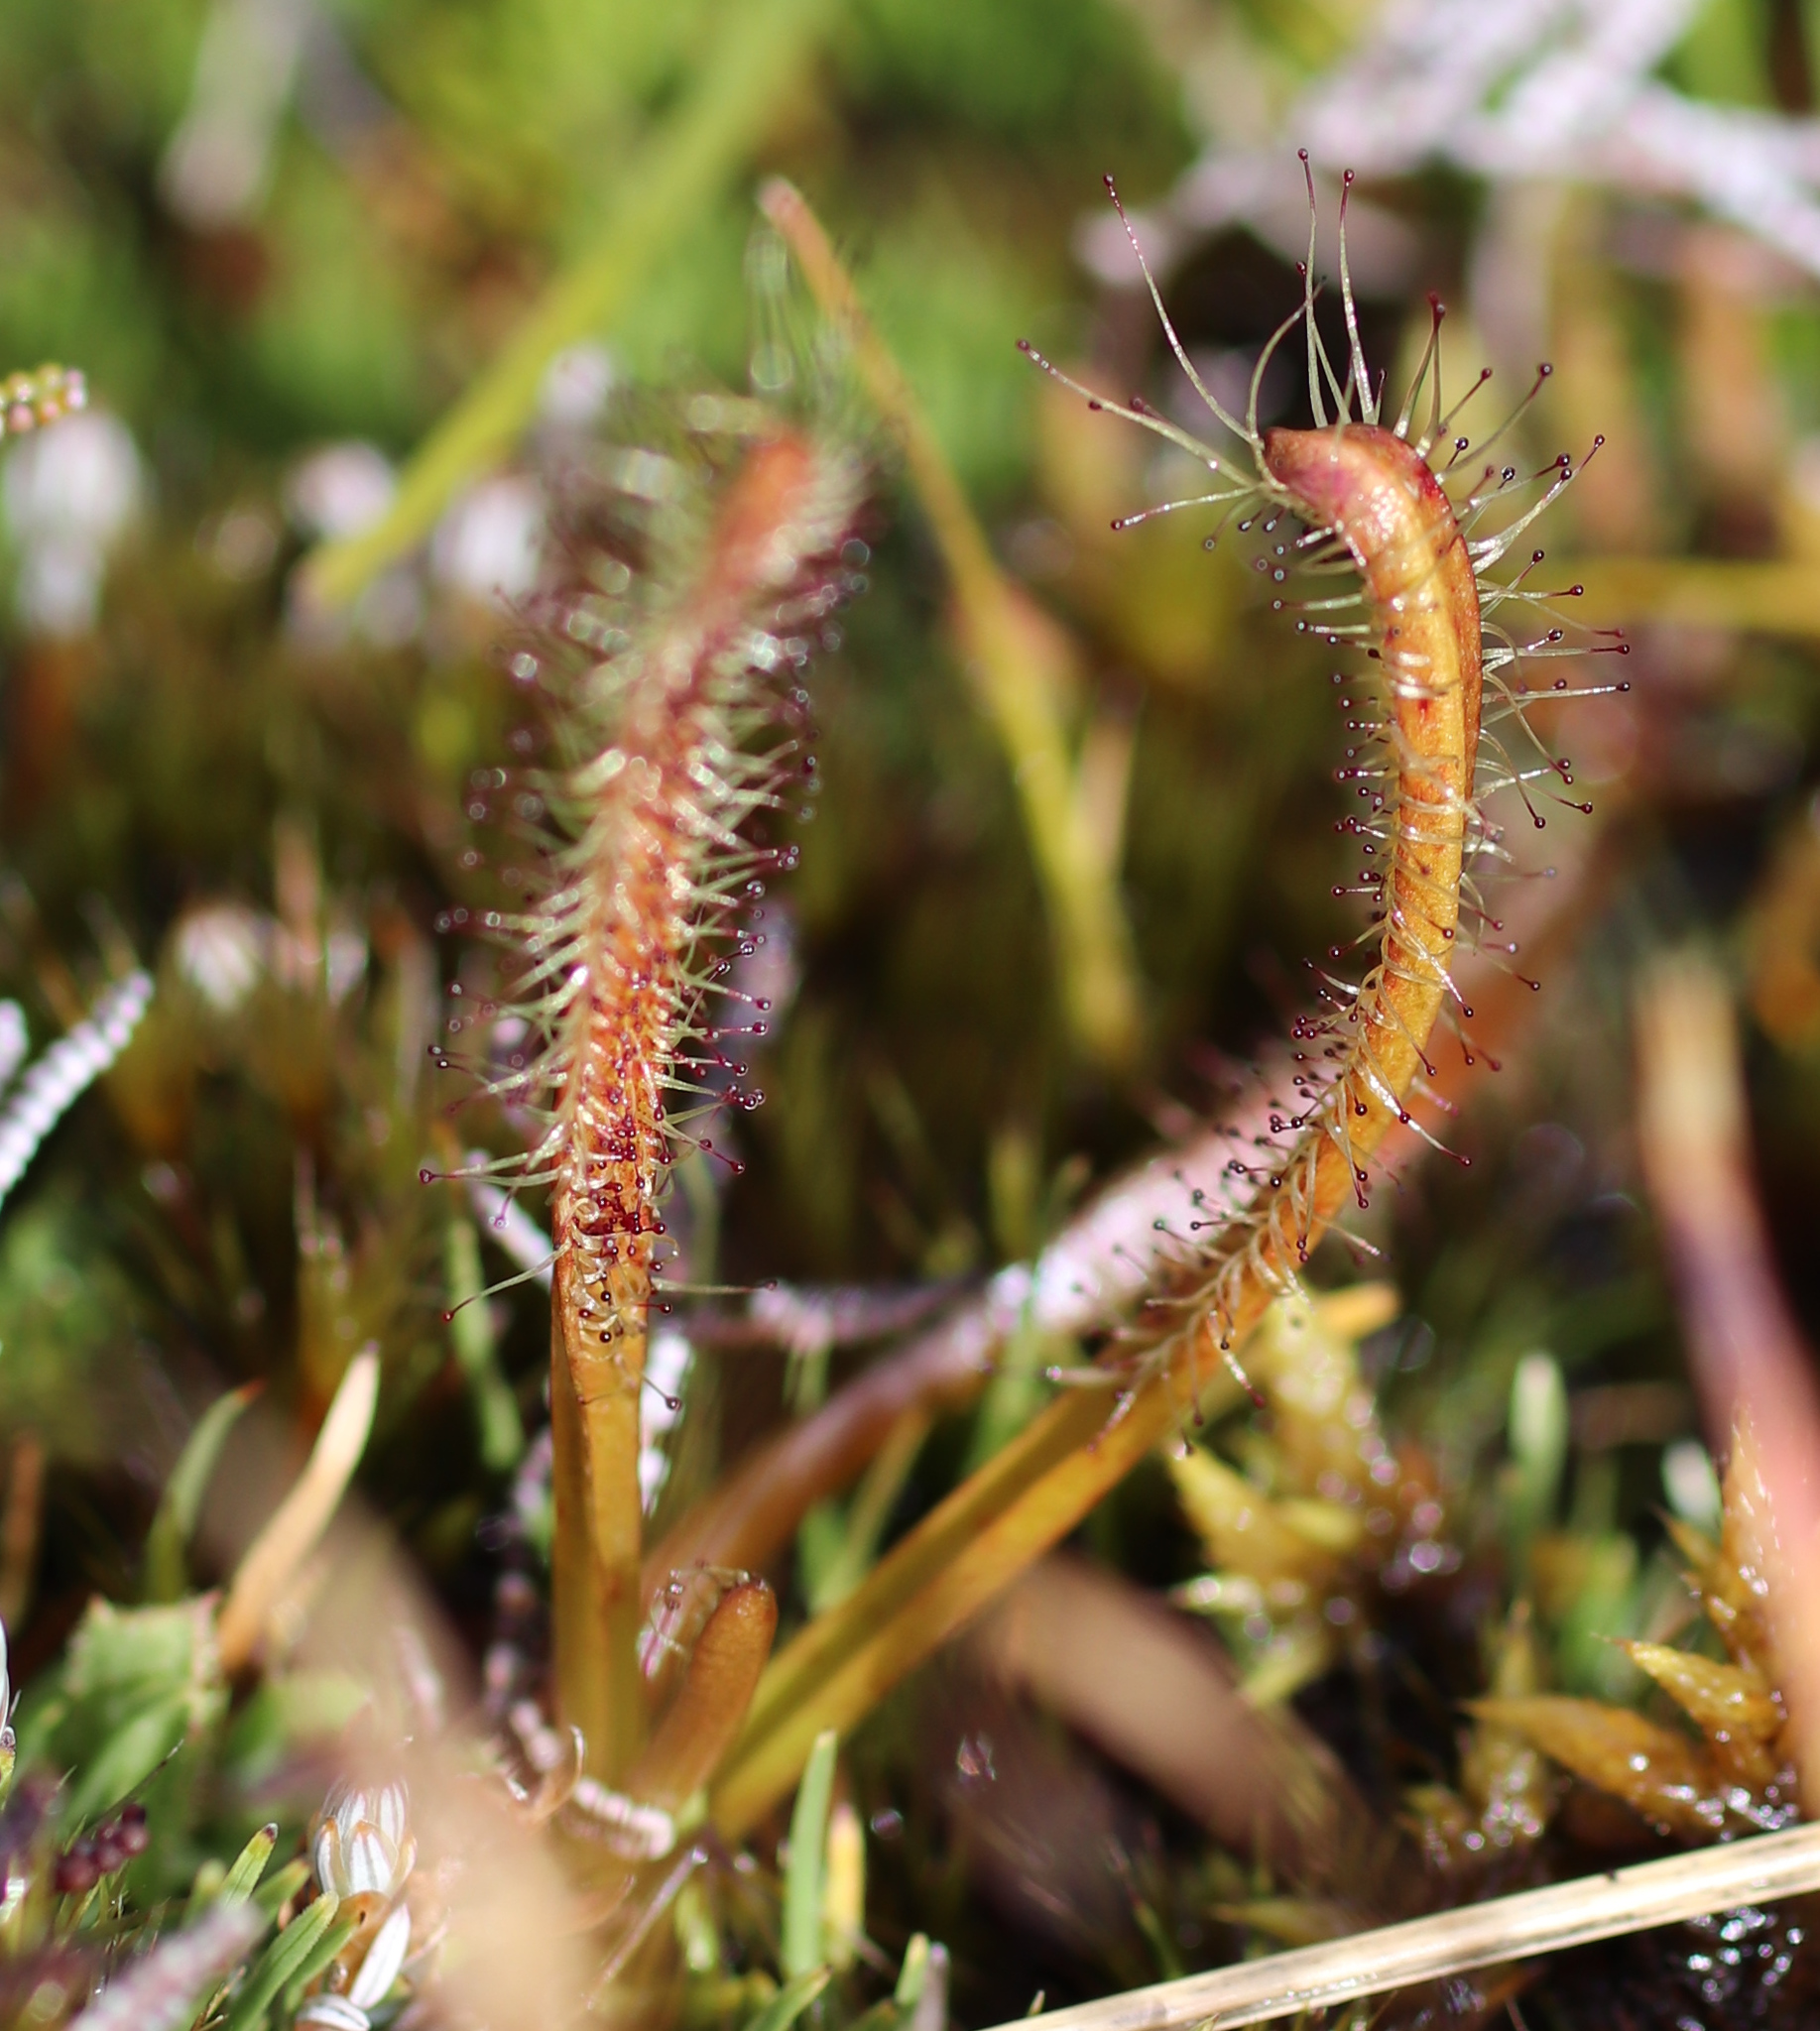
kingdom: Plantae
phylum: Tracheophyta
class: Magnoliopsida
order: Caryophyllales
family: Droseraceae
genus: Drosera
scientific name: Drosera arcturi
